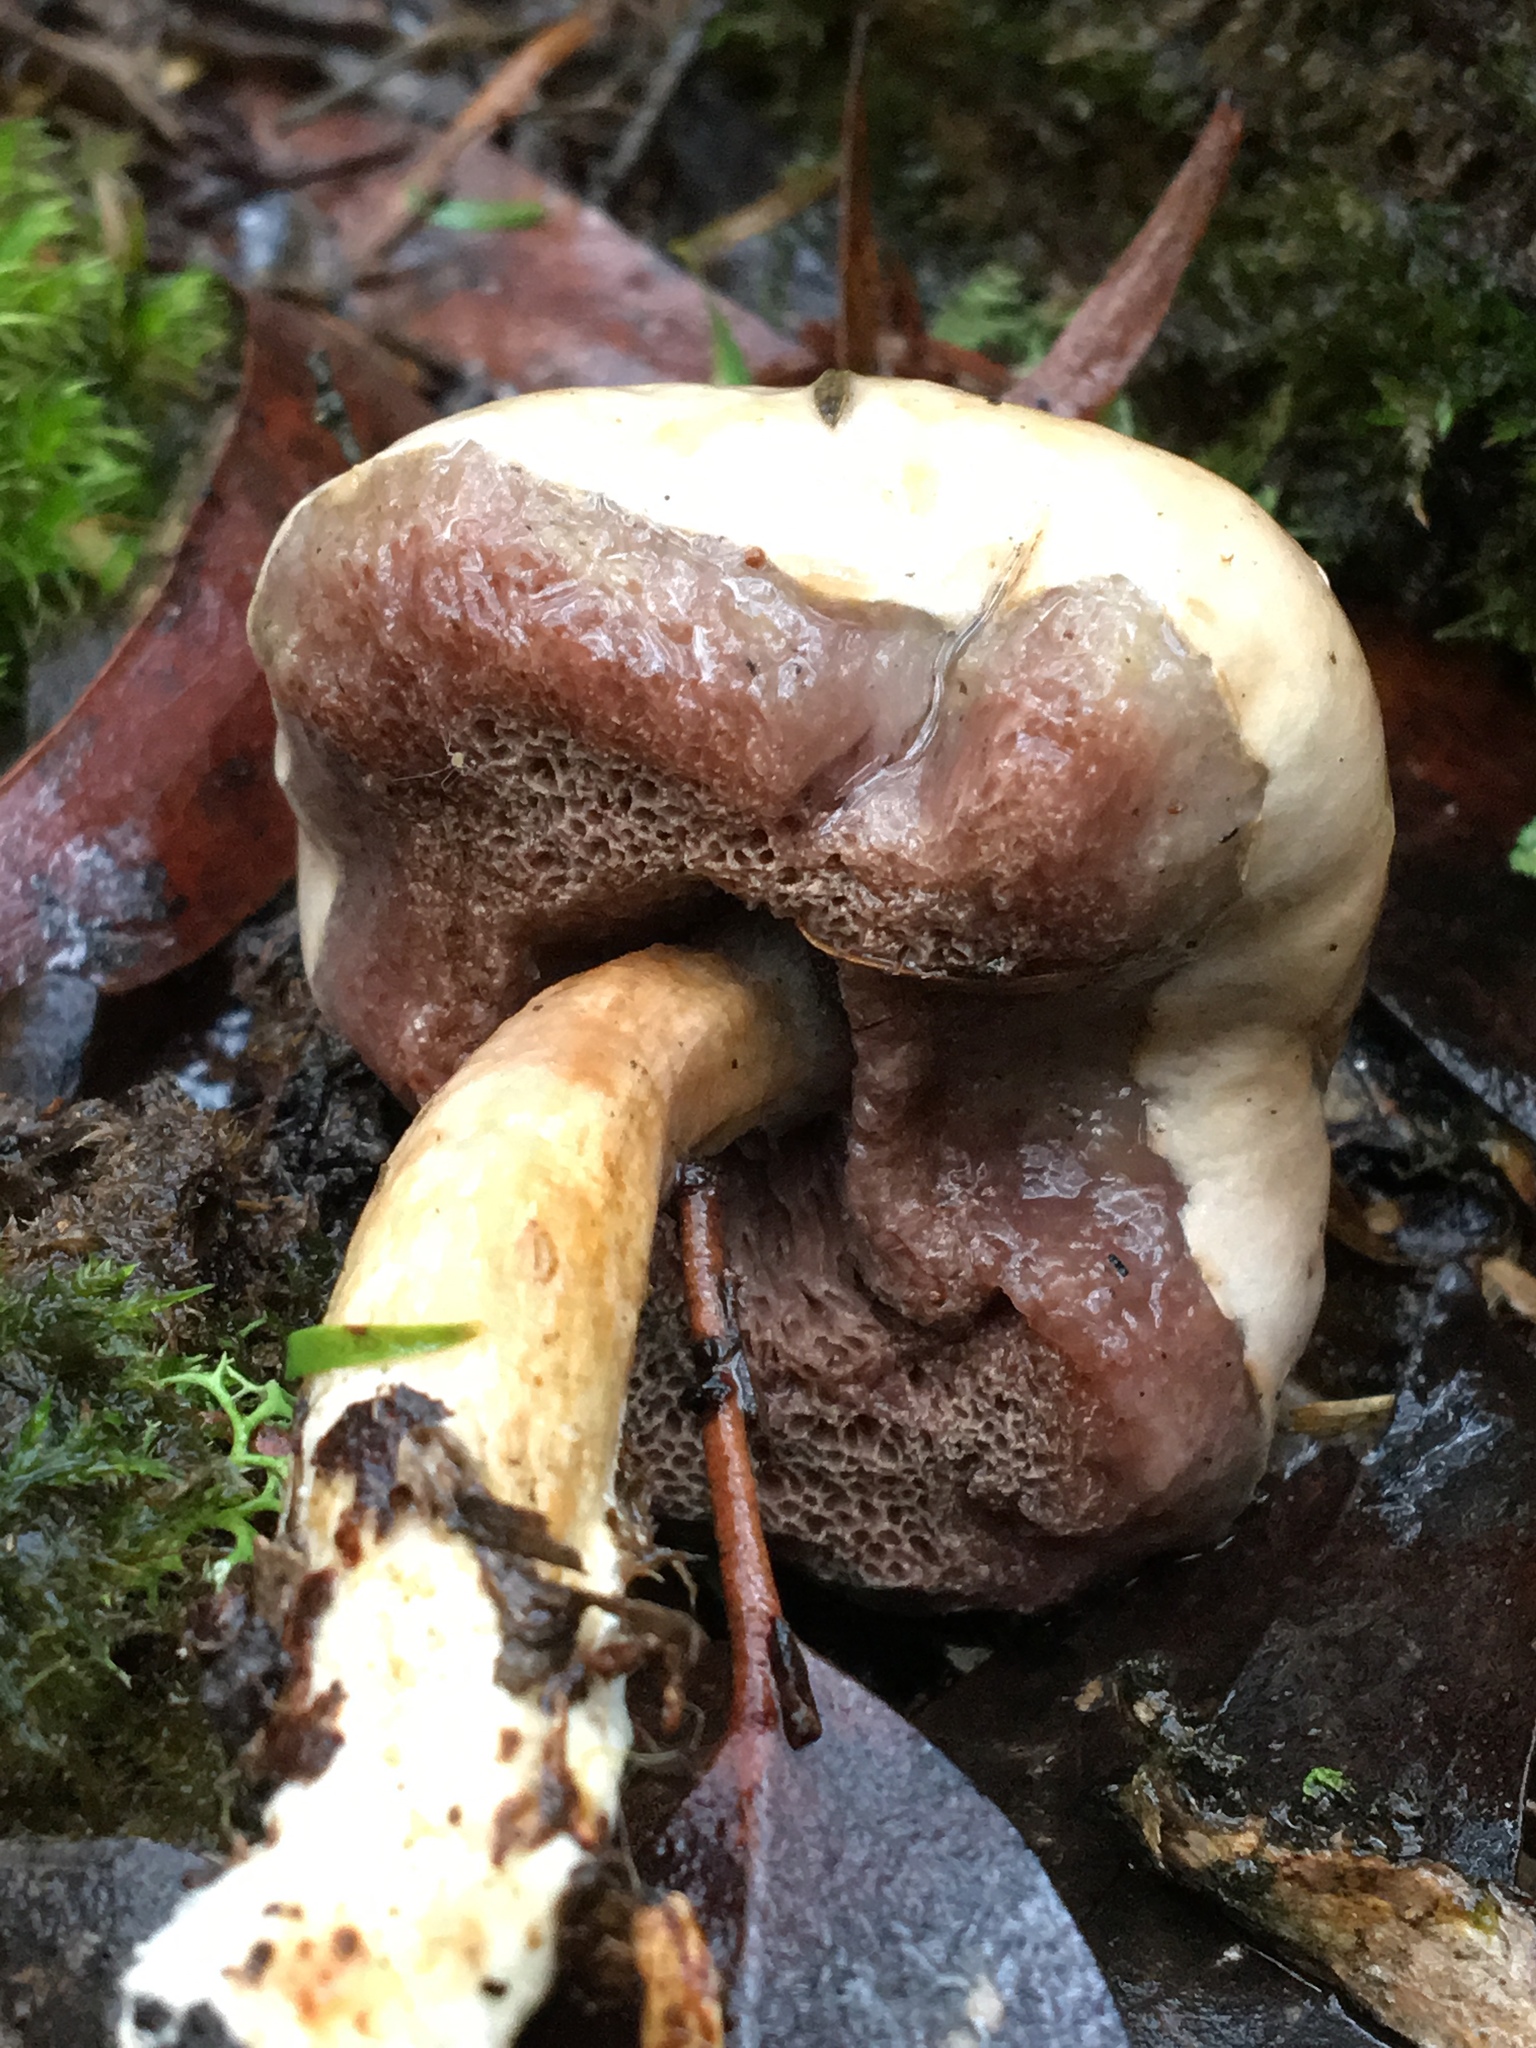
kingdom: Fungi
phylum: Basidiomycota
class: Agaricomycetes
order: Boletales
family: Boletaceae
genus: Fistulinella
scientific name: Fistulinella mollis
